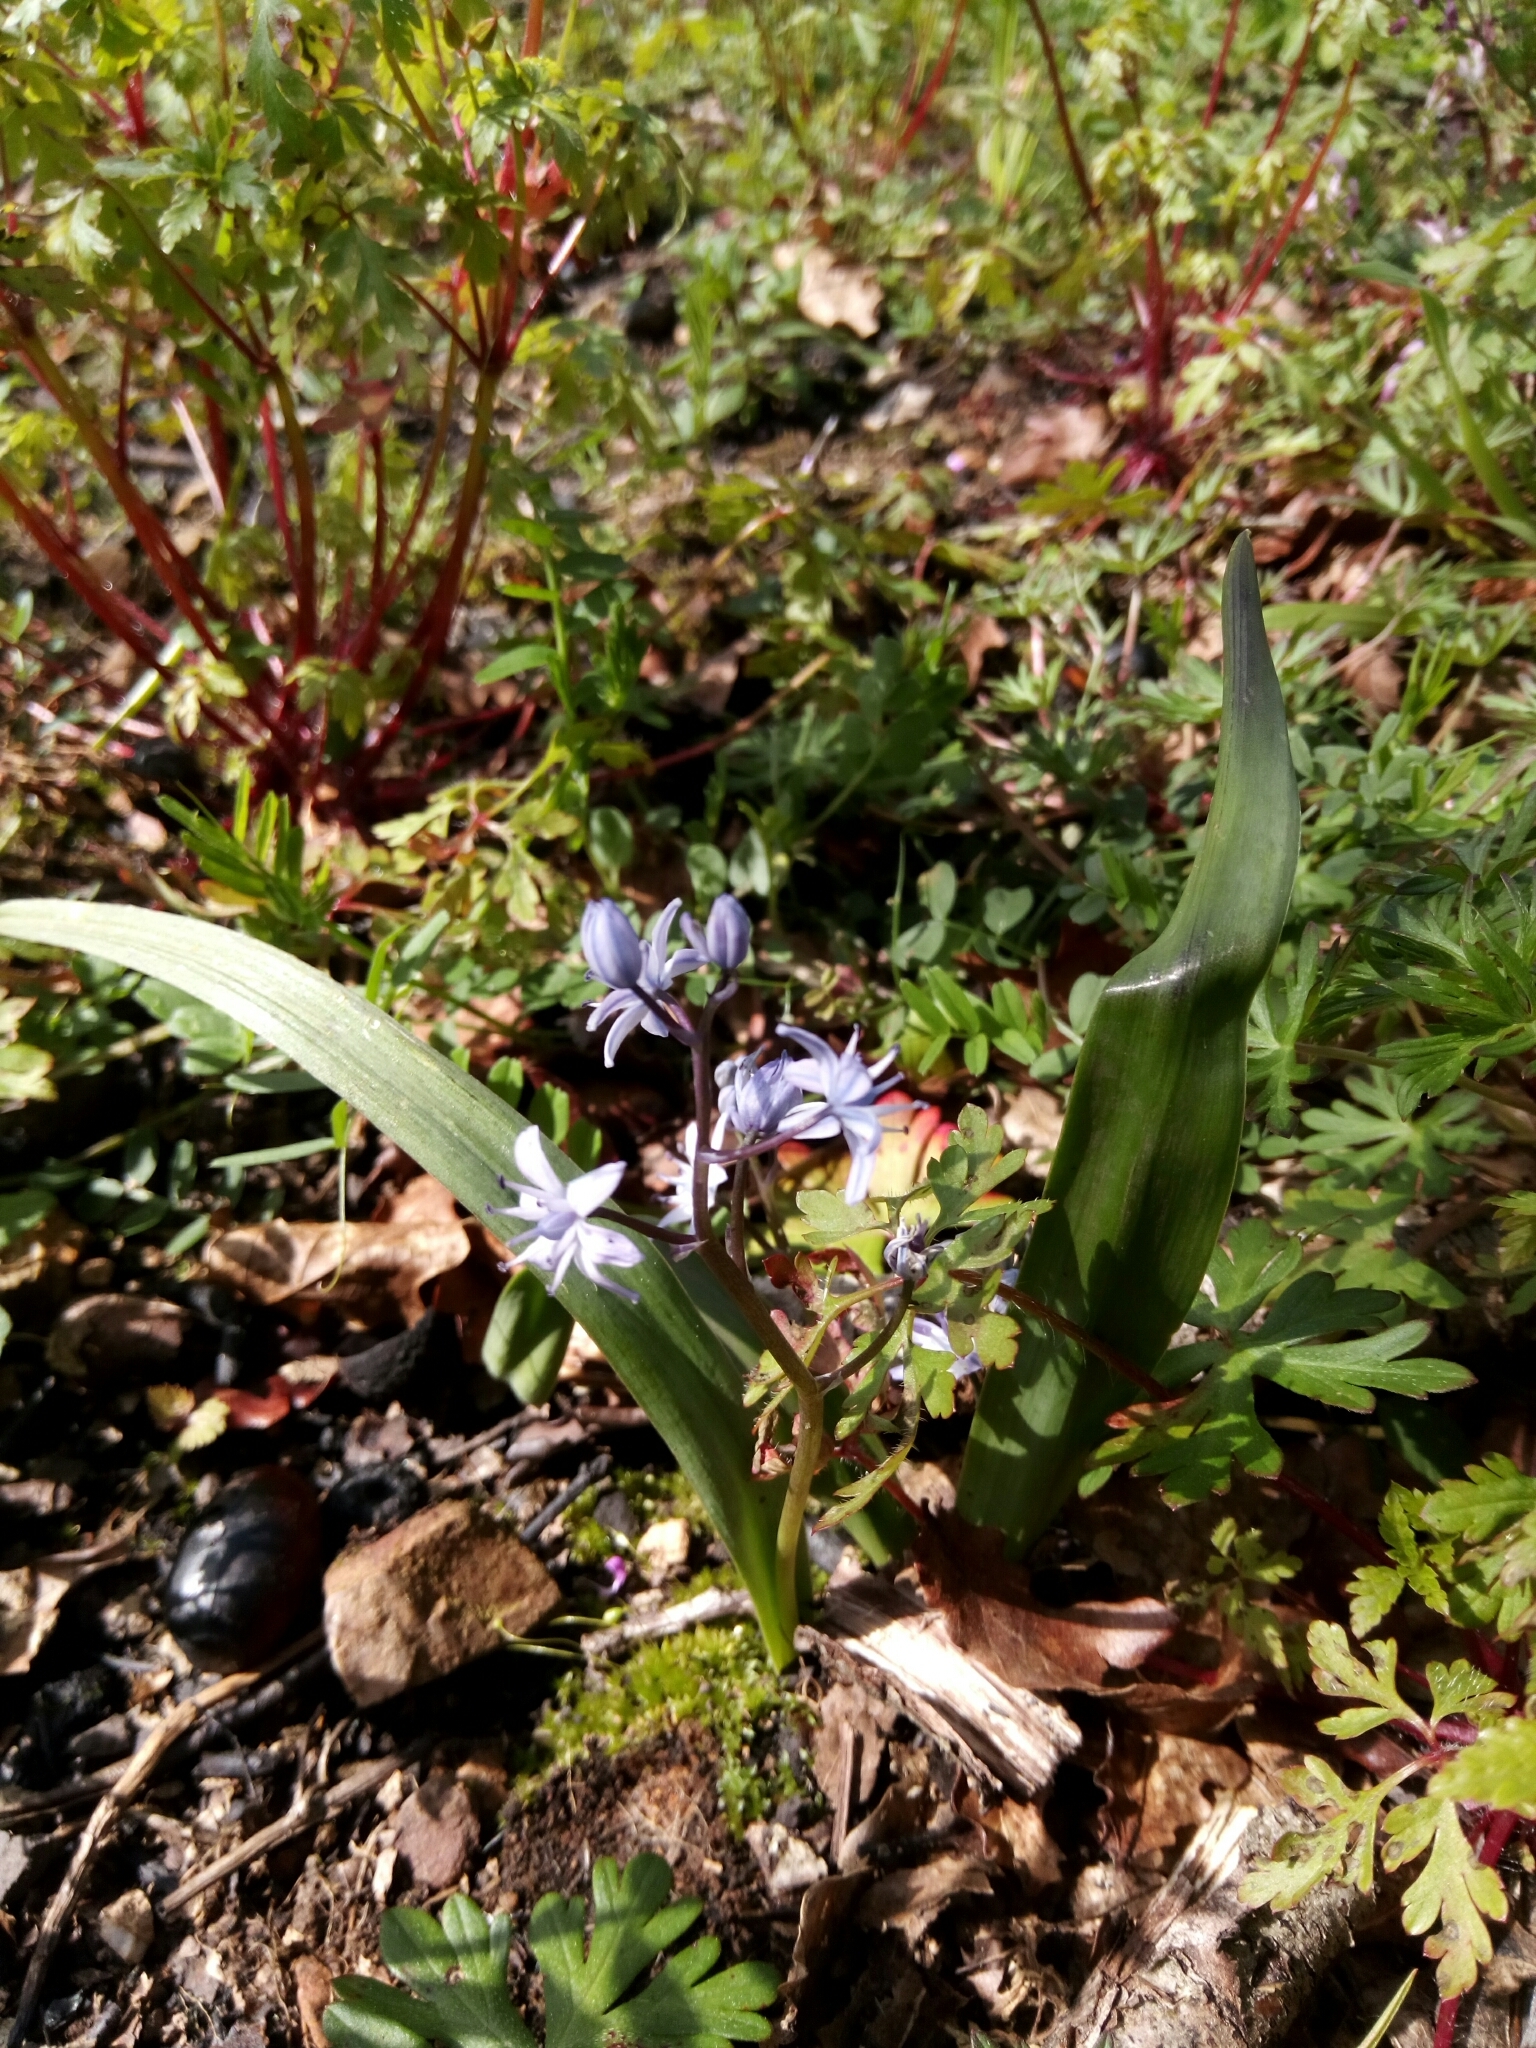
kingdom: Plantae
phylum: Tracheophyta
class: Liliopsida
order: Asparagales
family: Asparagaceae
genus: Scilla
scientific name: Scilla monophyllos
